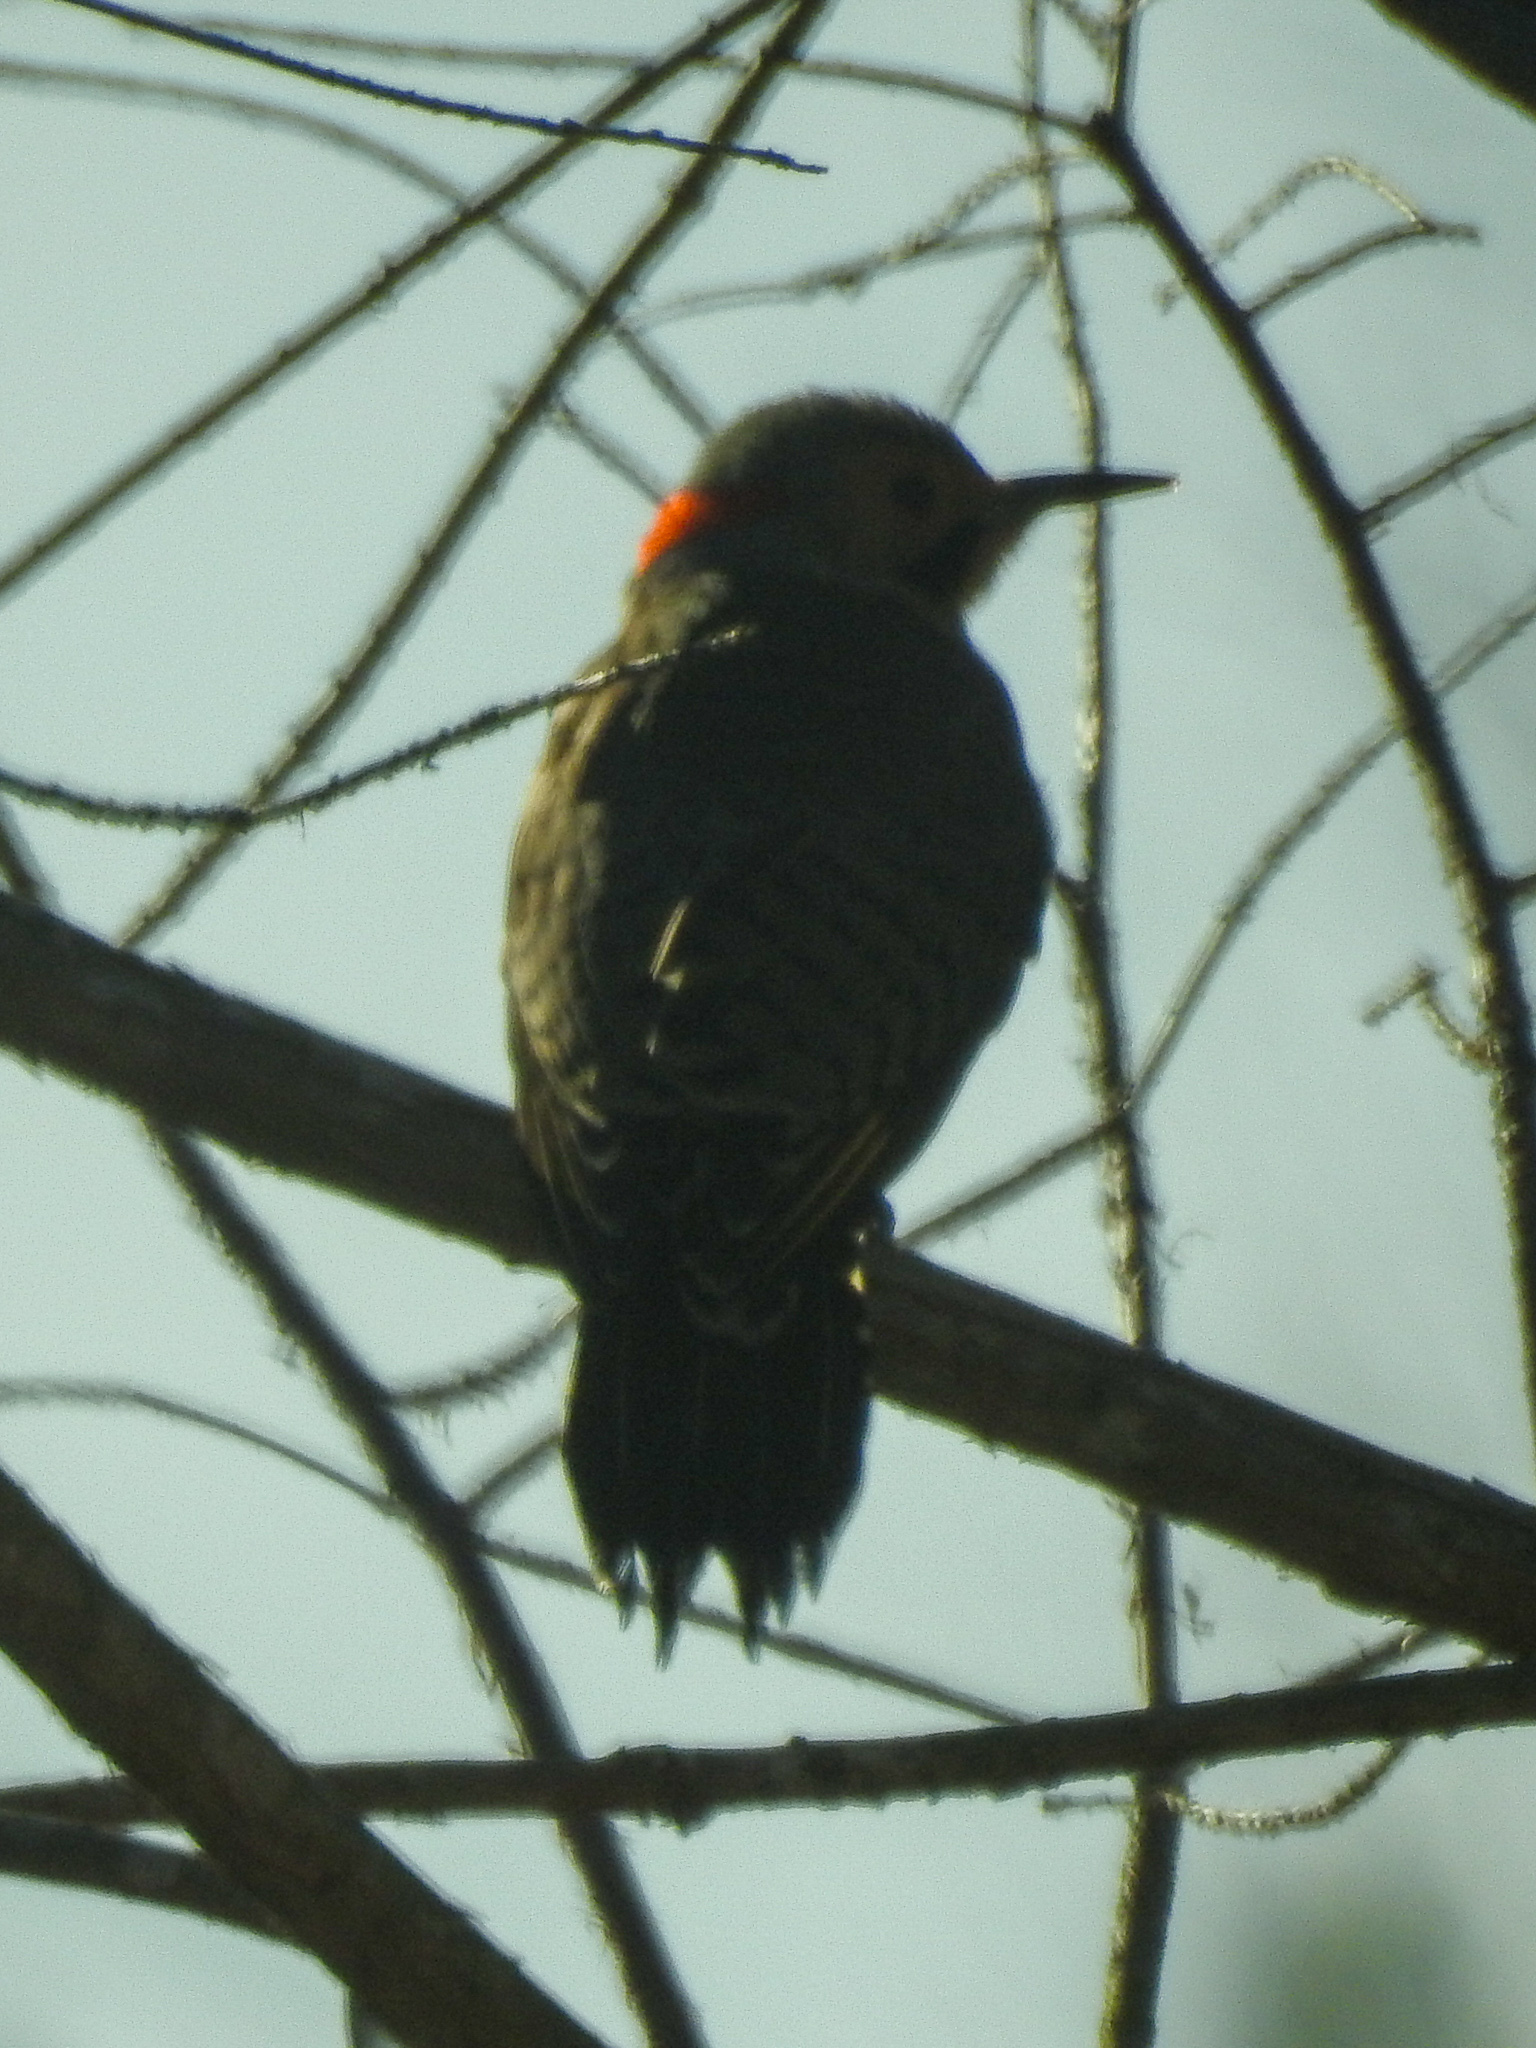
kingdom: Animalia
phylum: Chordata
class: Aves
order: Piciformes
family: Picidae
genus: Colaptes
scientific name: Colaptes auratus
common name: Northern flicker
